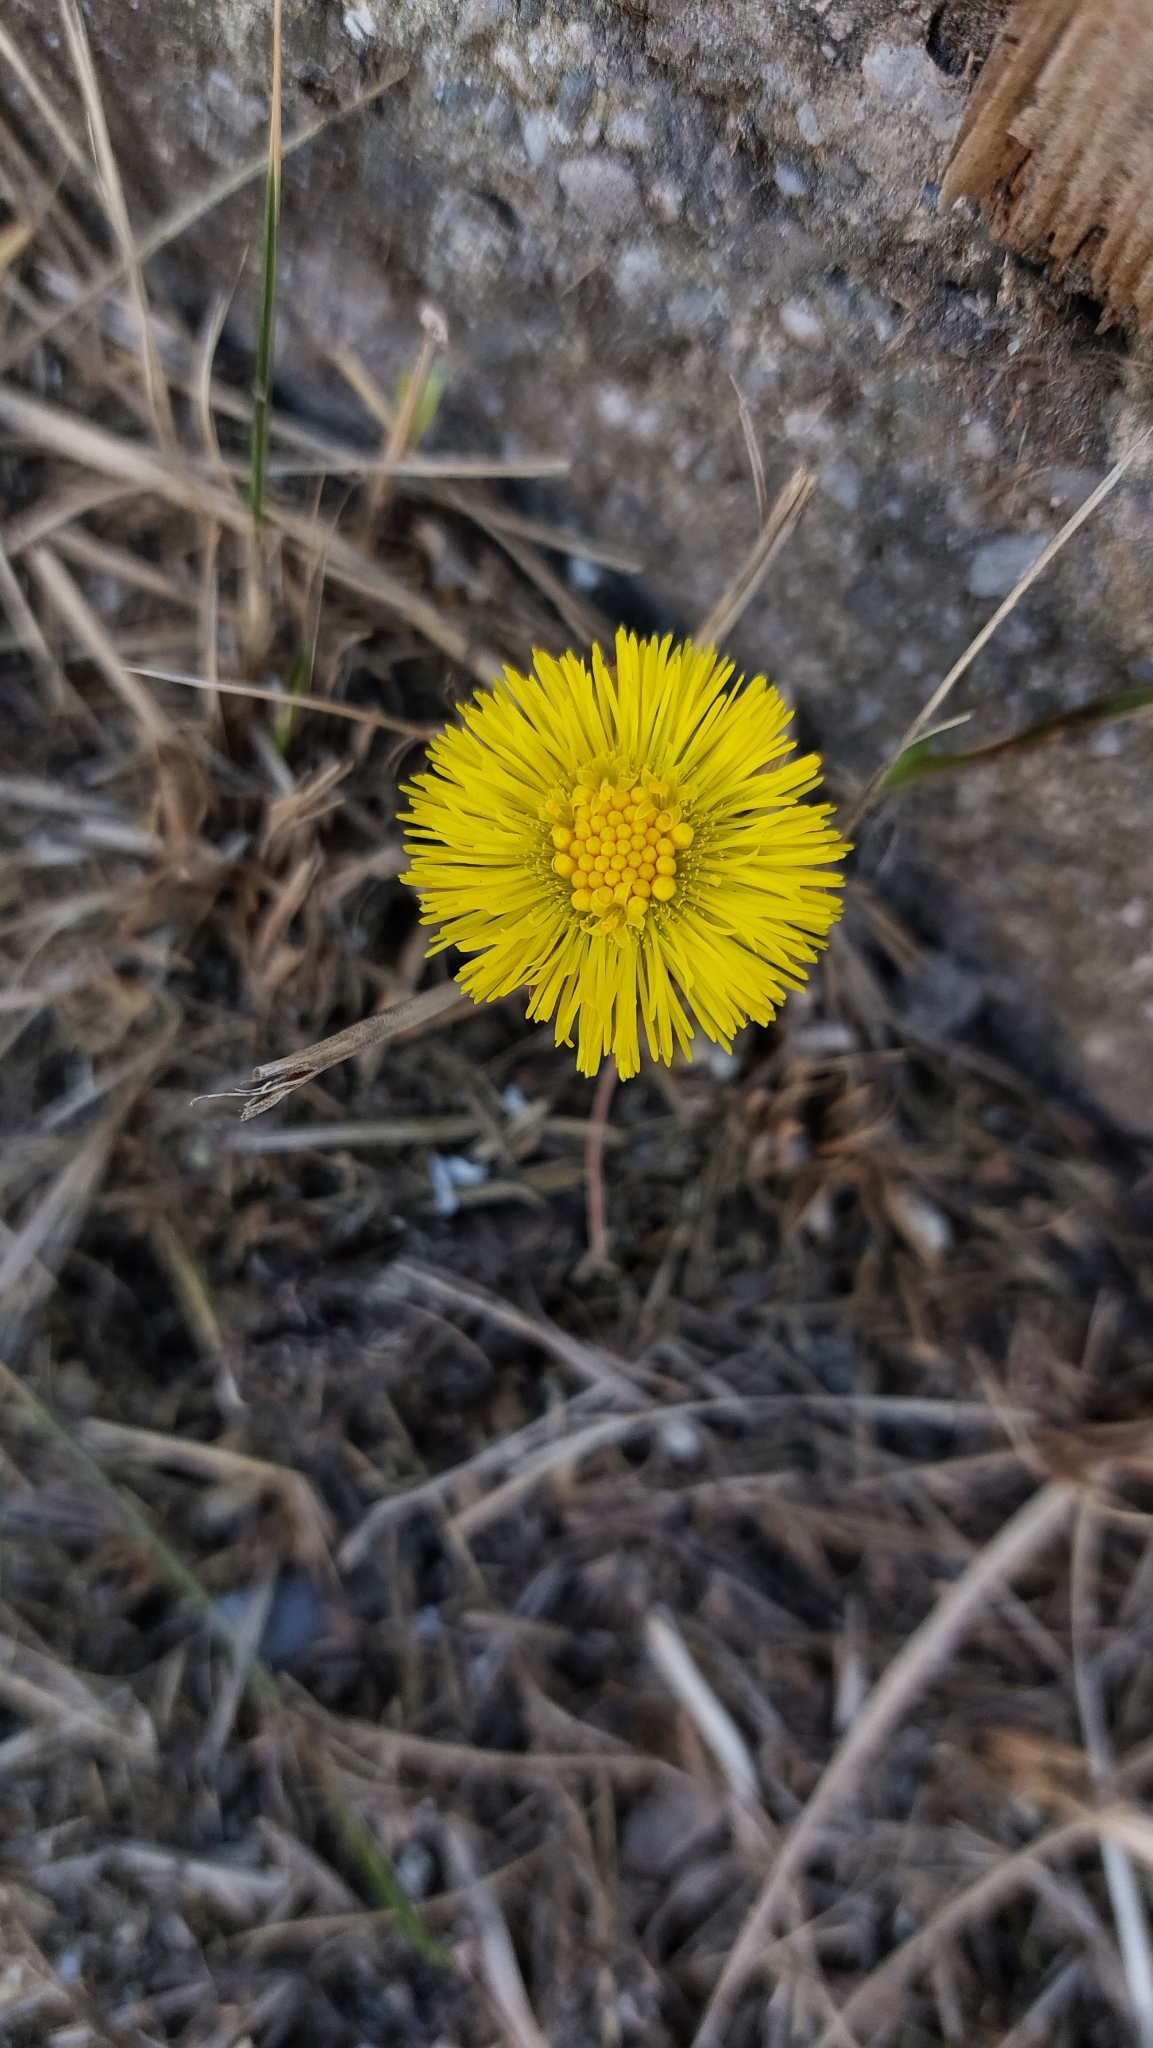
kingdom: Plantae
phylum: Tracheophyta
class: Magnoliopsida
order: Asterales
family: Asteraceae
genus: Tussilago
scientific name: Tussilago farfara
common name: Coltsfoot
